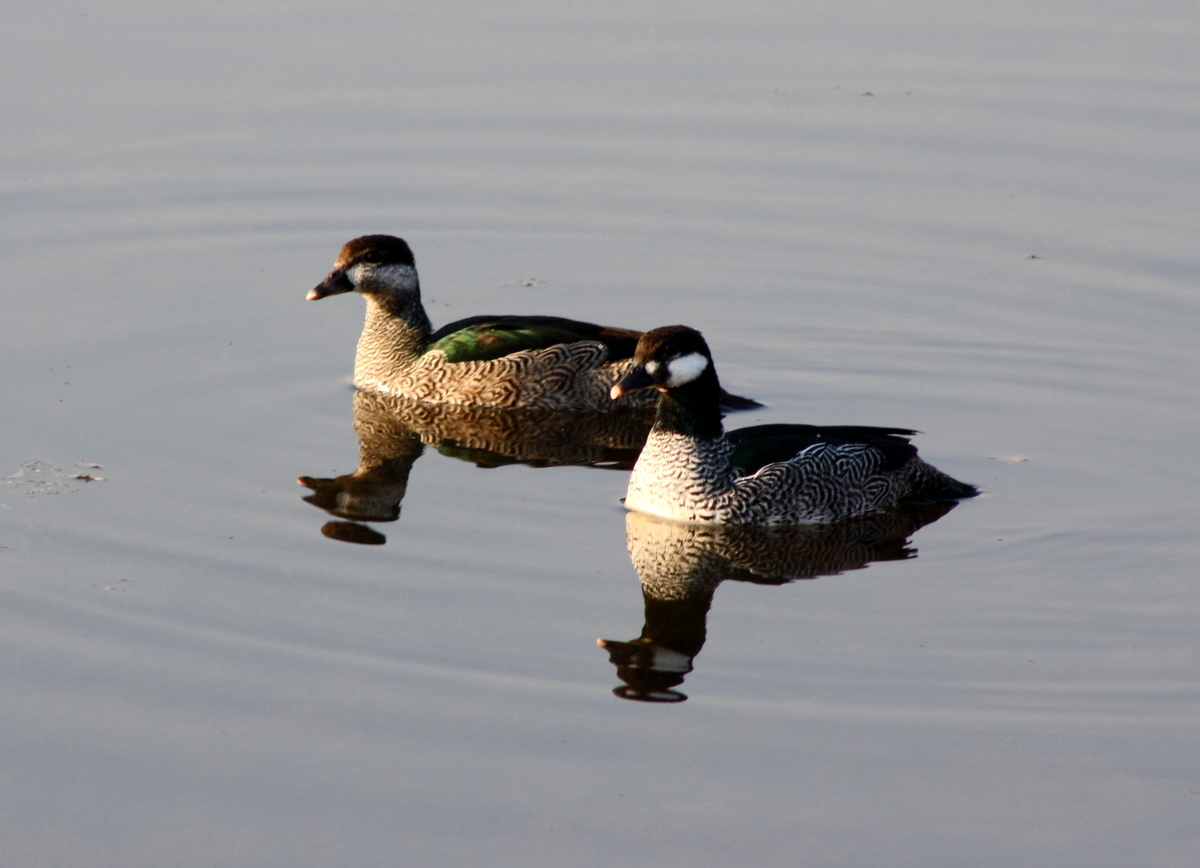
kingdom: Animalia
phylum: Chordata
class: Aves
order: Anseriformes
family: Anatidae
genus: Nettapus
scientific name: Nettapus pulchellus
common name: Green pygmy-goose
